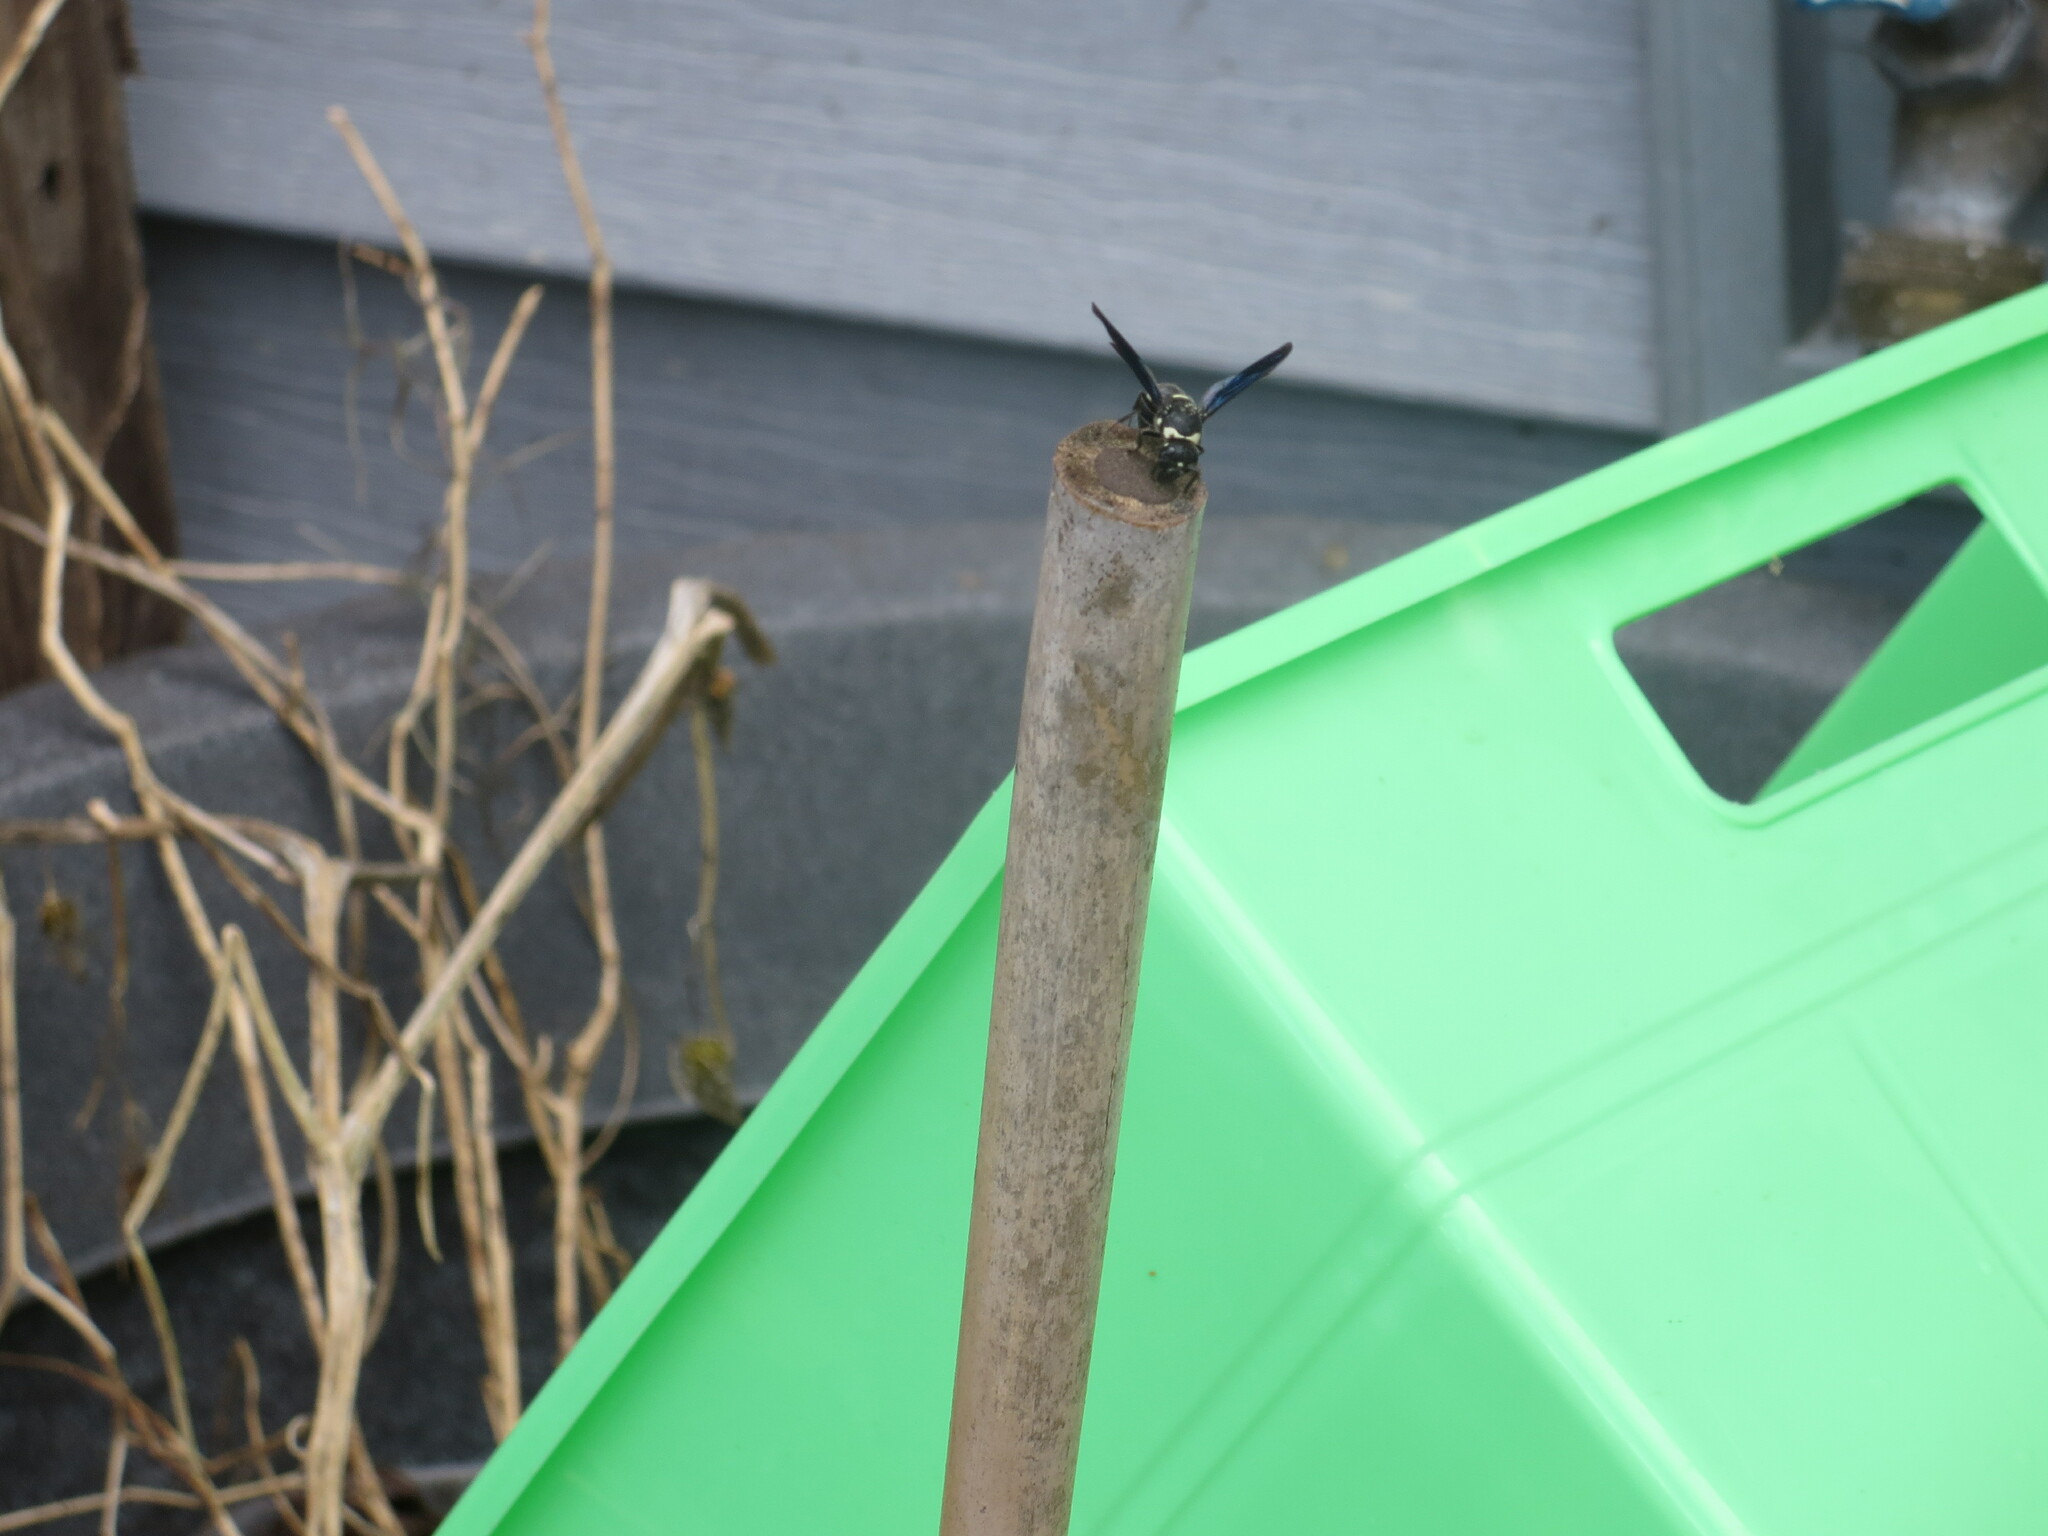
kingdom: Animalia
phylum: Arthropoda
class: Insecta
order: Hymenoptera
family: Eumenidae
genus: Euodynerus
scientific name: Euodynerus megaera
